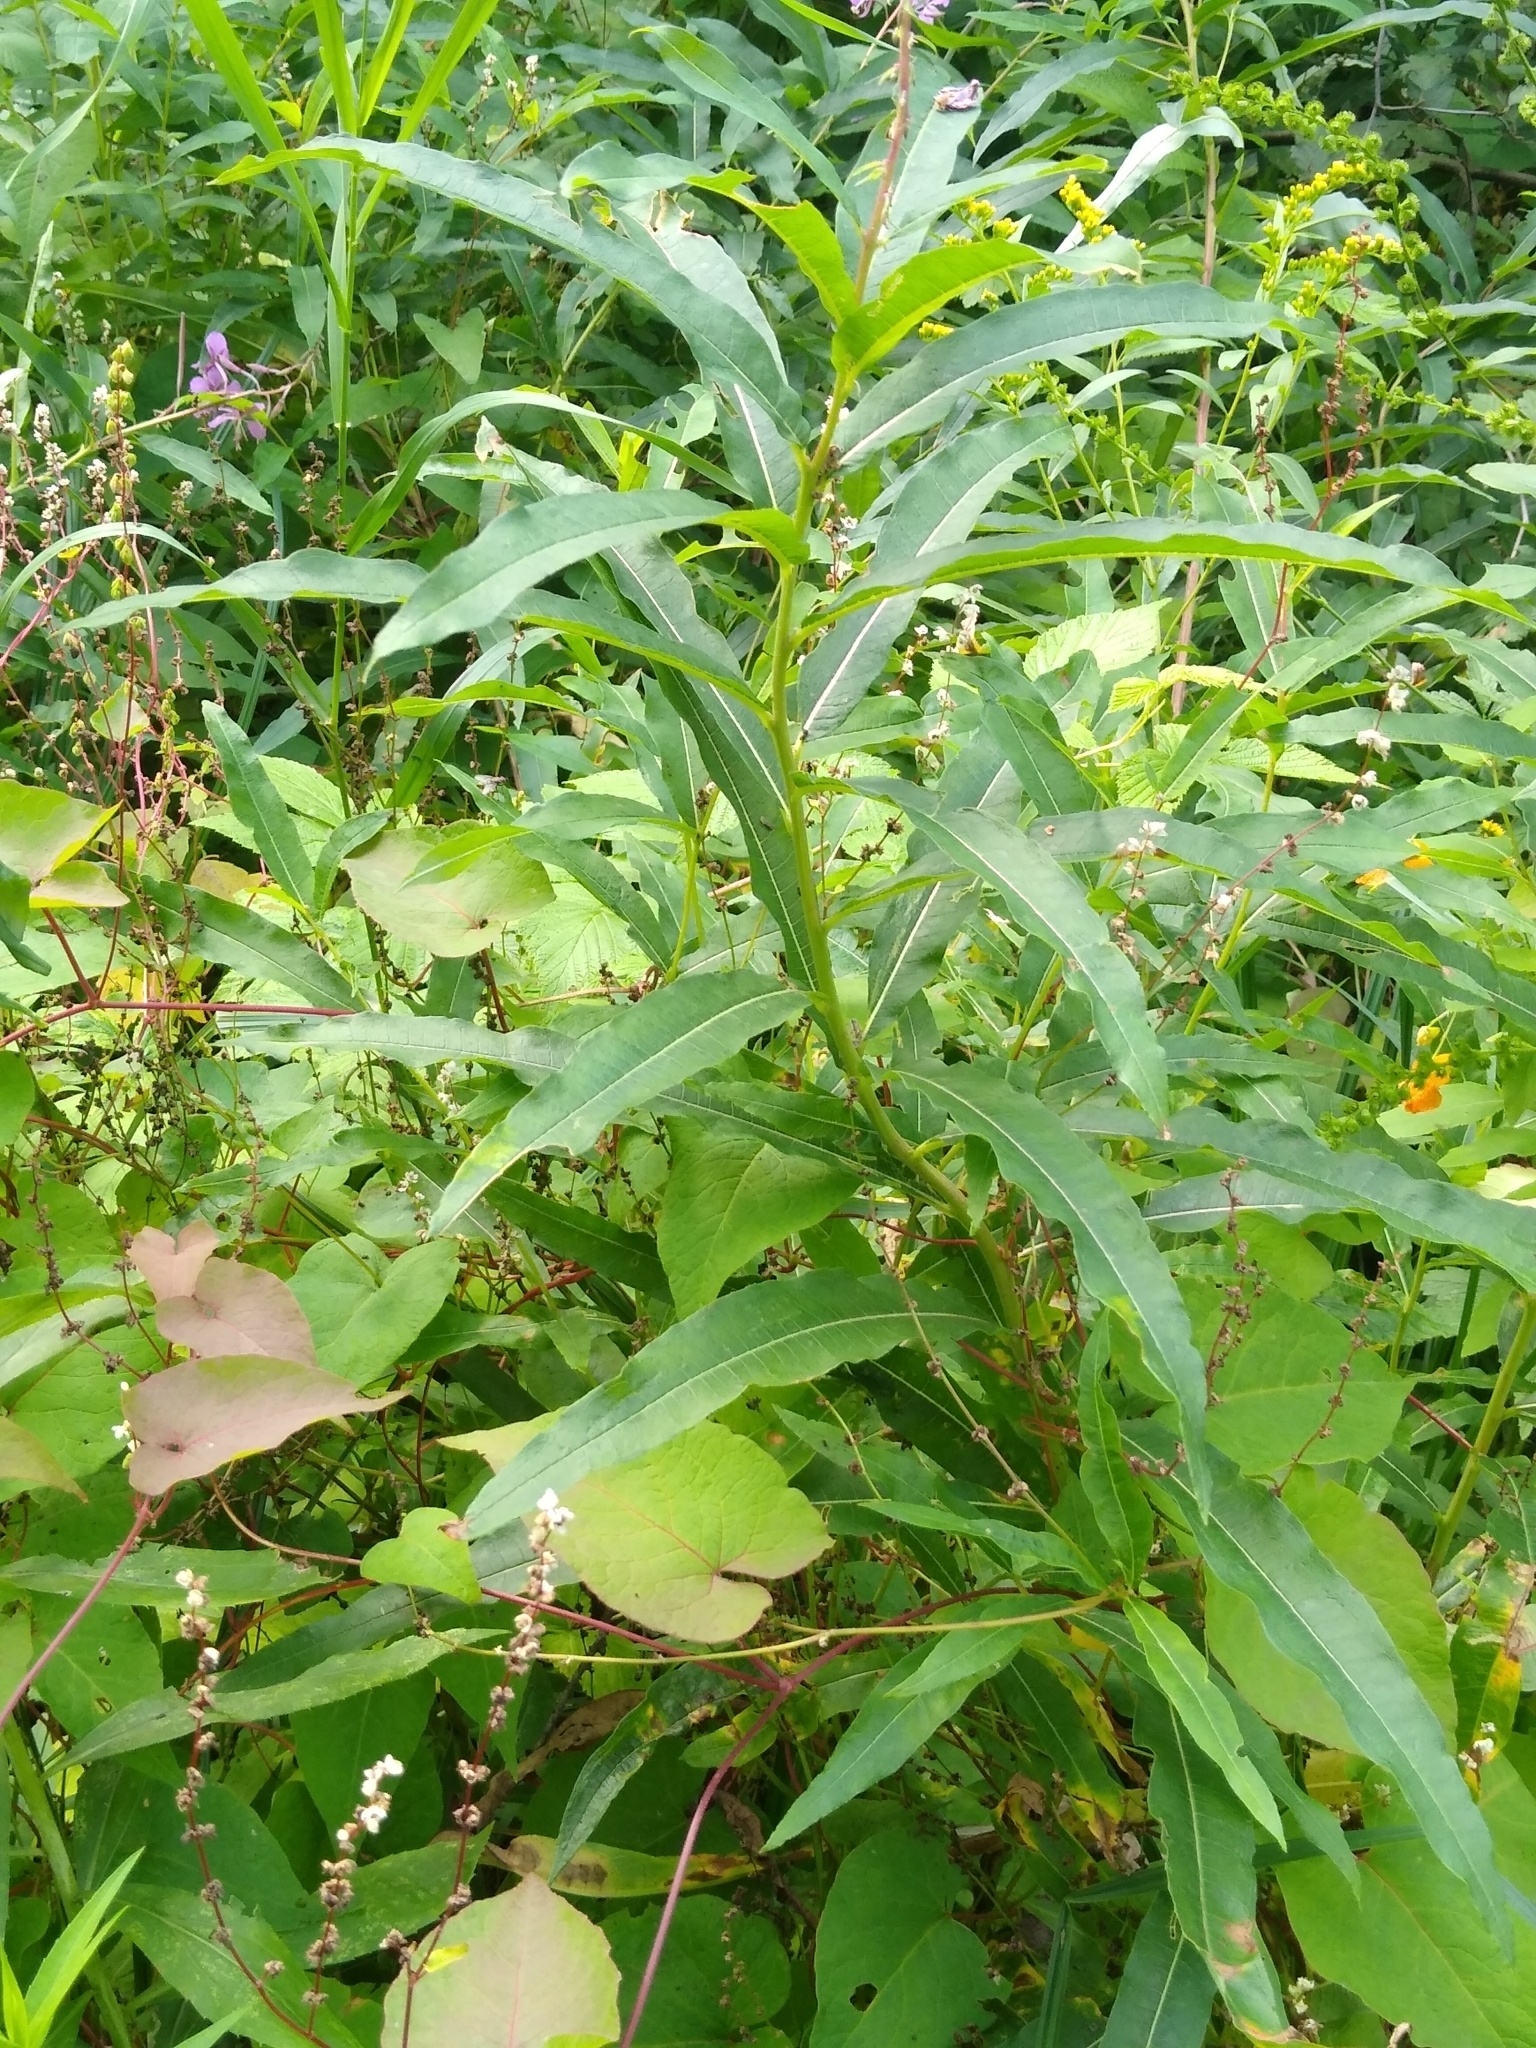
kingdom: Plantae
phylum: Tracheophyta
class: Magnoliopsida
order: Myrtales
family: Onagraceae
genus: Chamaenerion
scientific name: Chamaenerion angustifolium
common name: Fireweed
